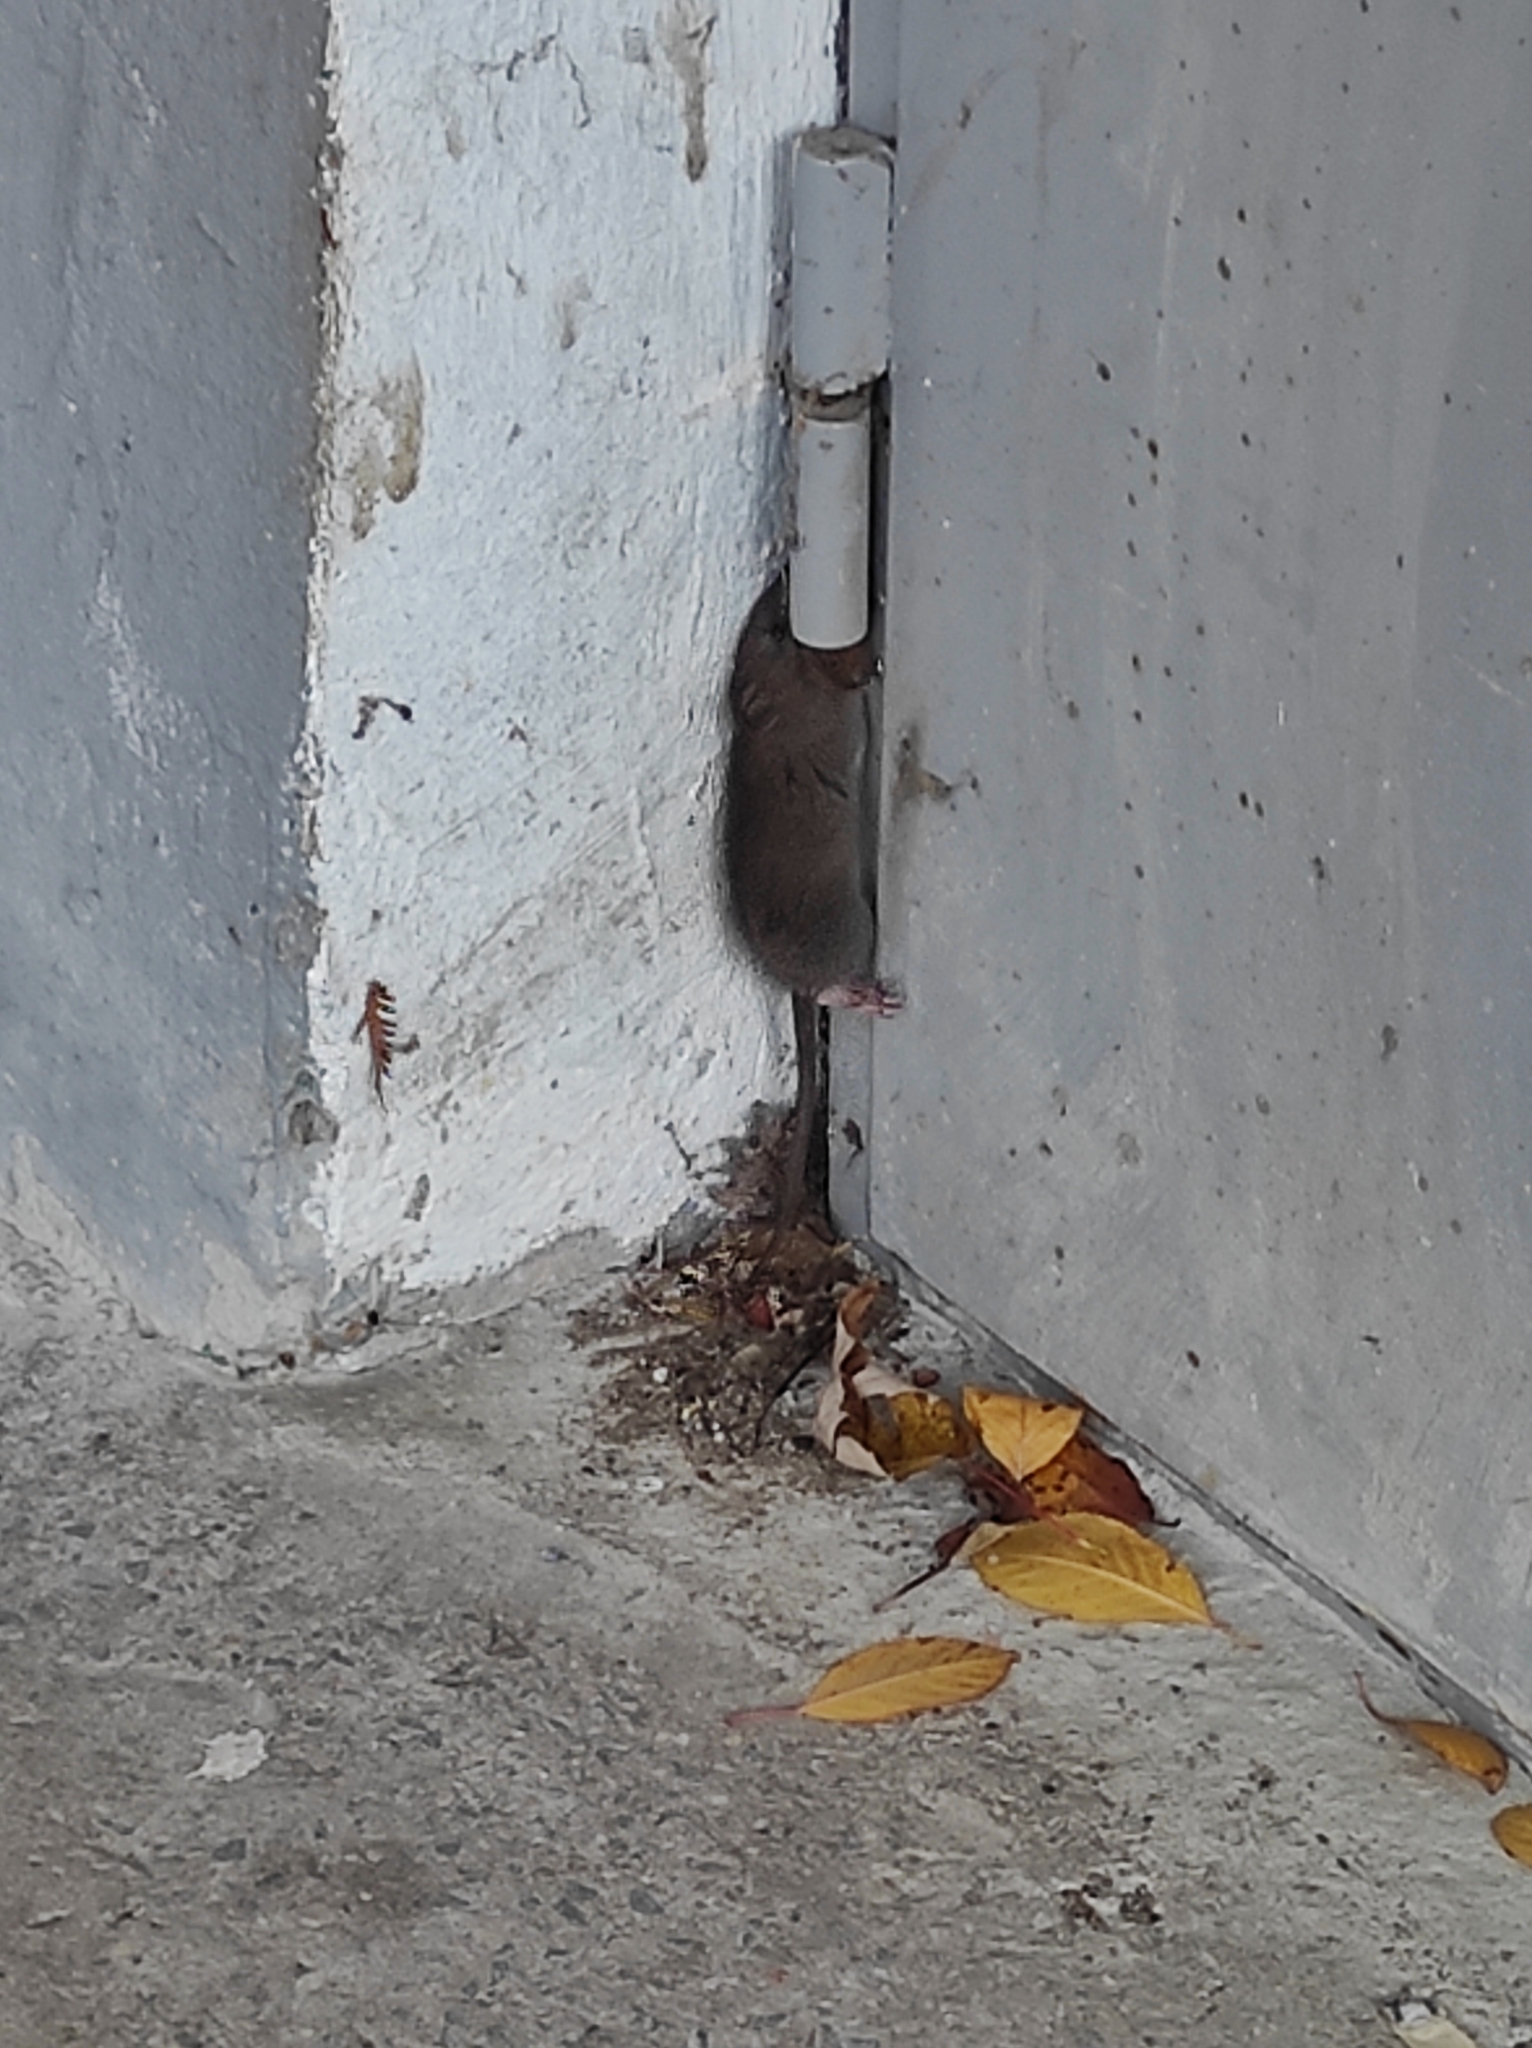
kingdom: Animalia
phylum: Chordata
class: Mammalia
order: Rodentia
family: Muridae
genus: Mus
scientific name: Mus musculus
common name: House mouse
